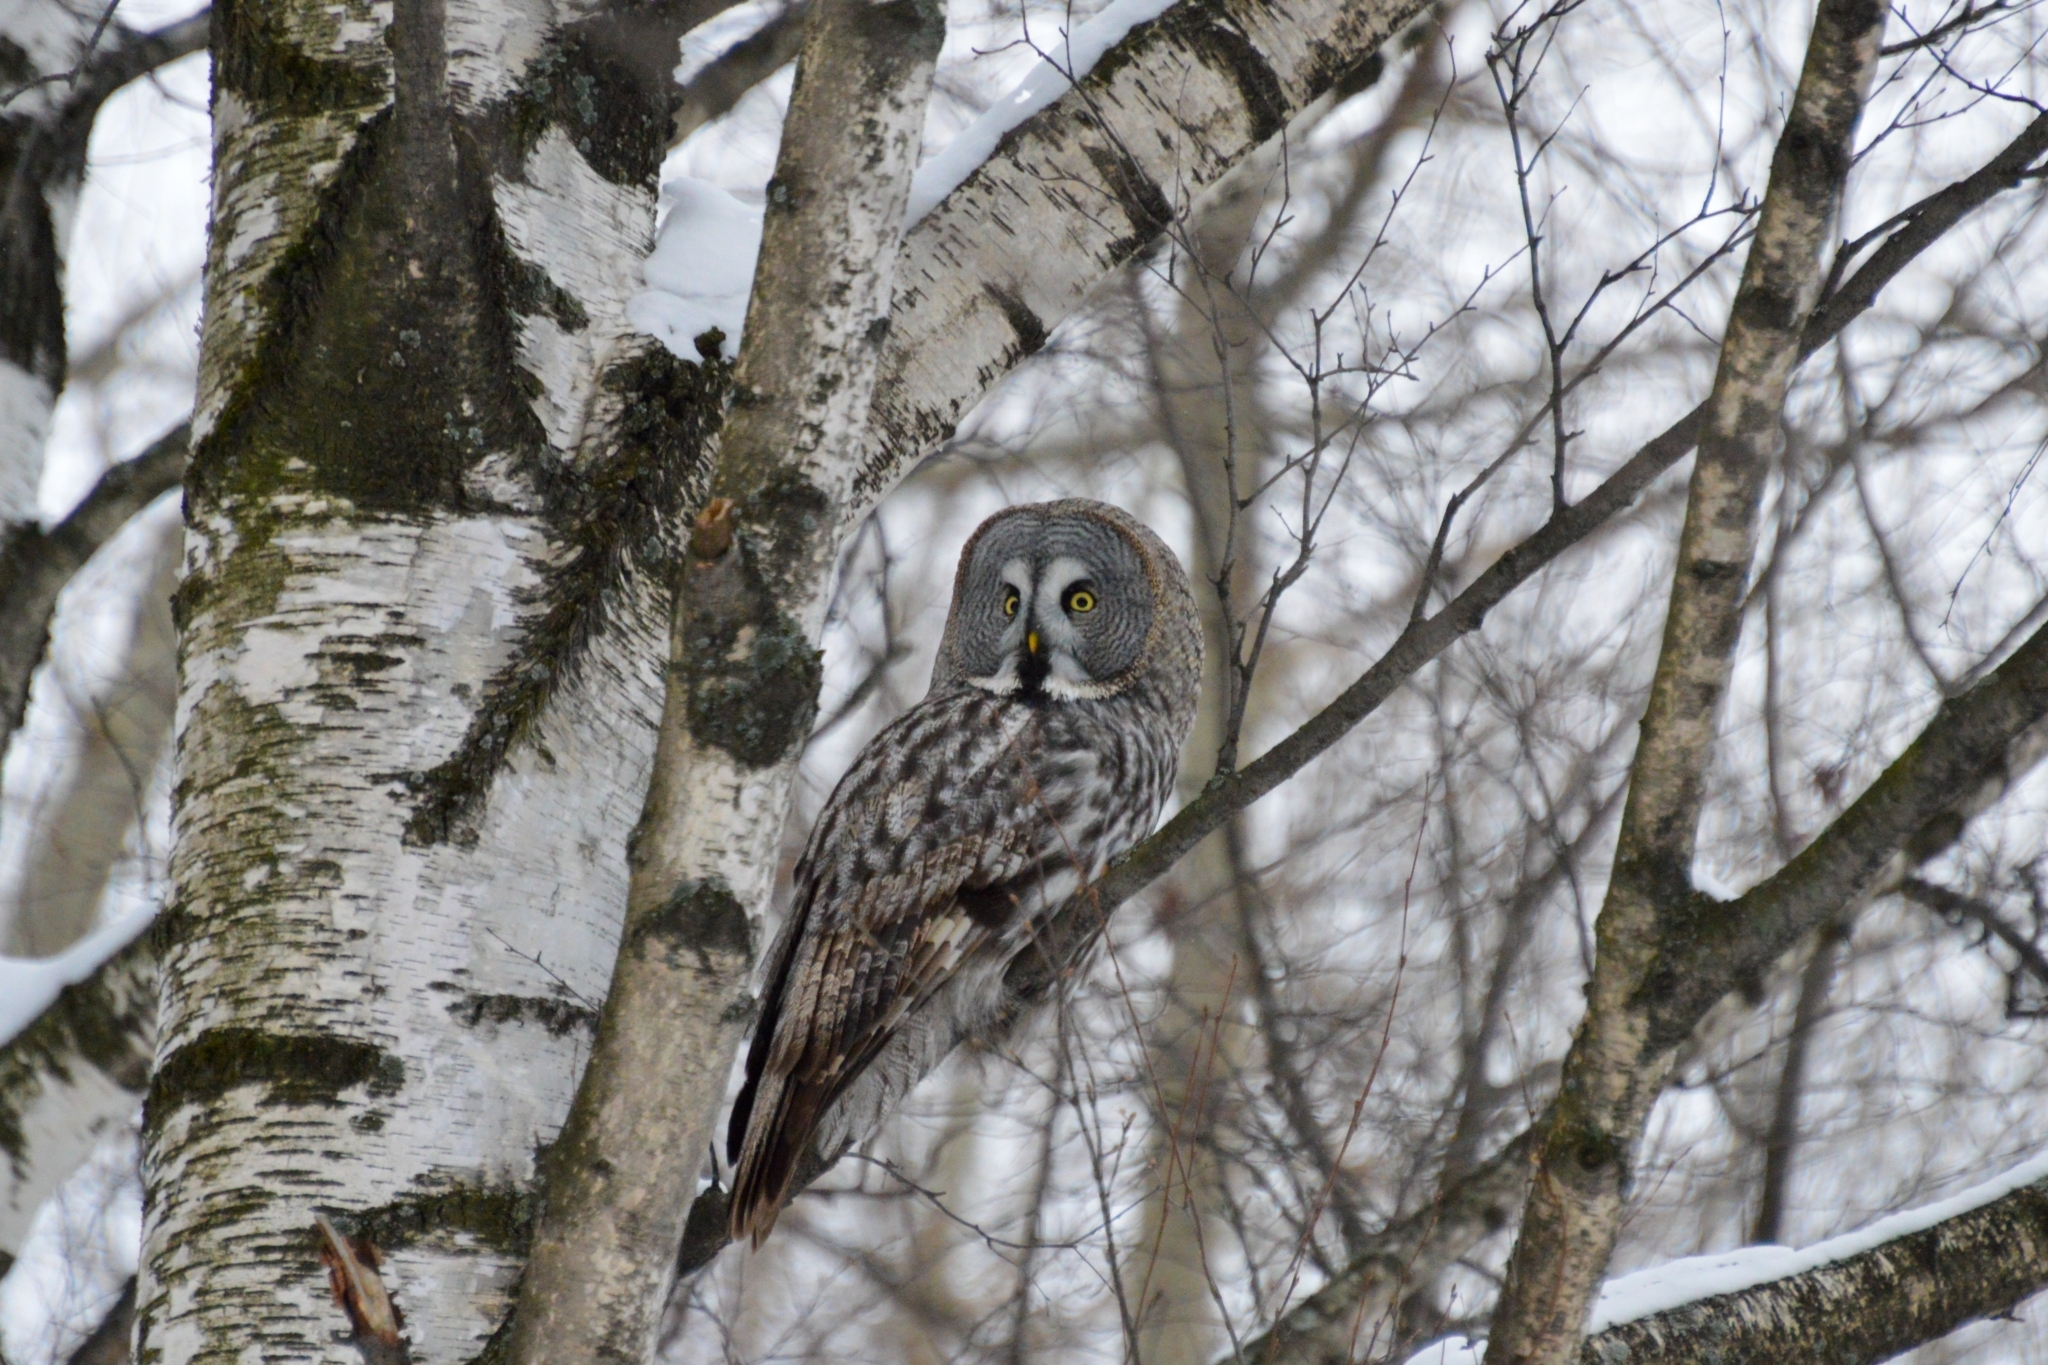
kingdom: Animalia
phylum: Chordata
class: Aves
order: Strigiformes
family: Strigidae
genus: Strix
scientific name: Strix nebulosa
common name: Great grey owl
